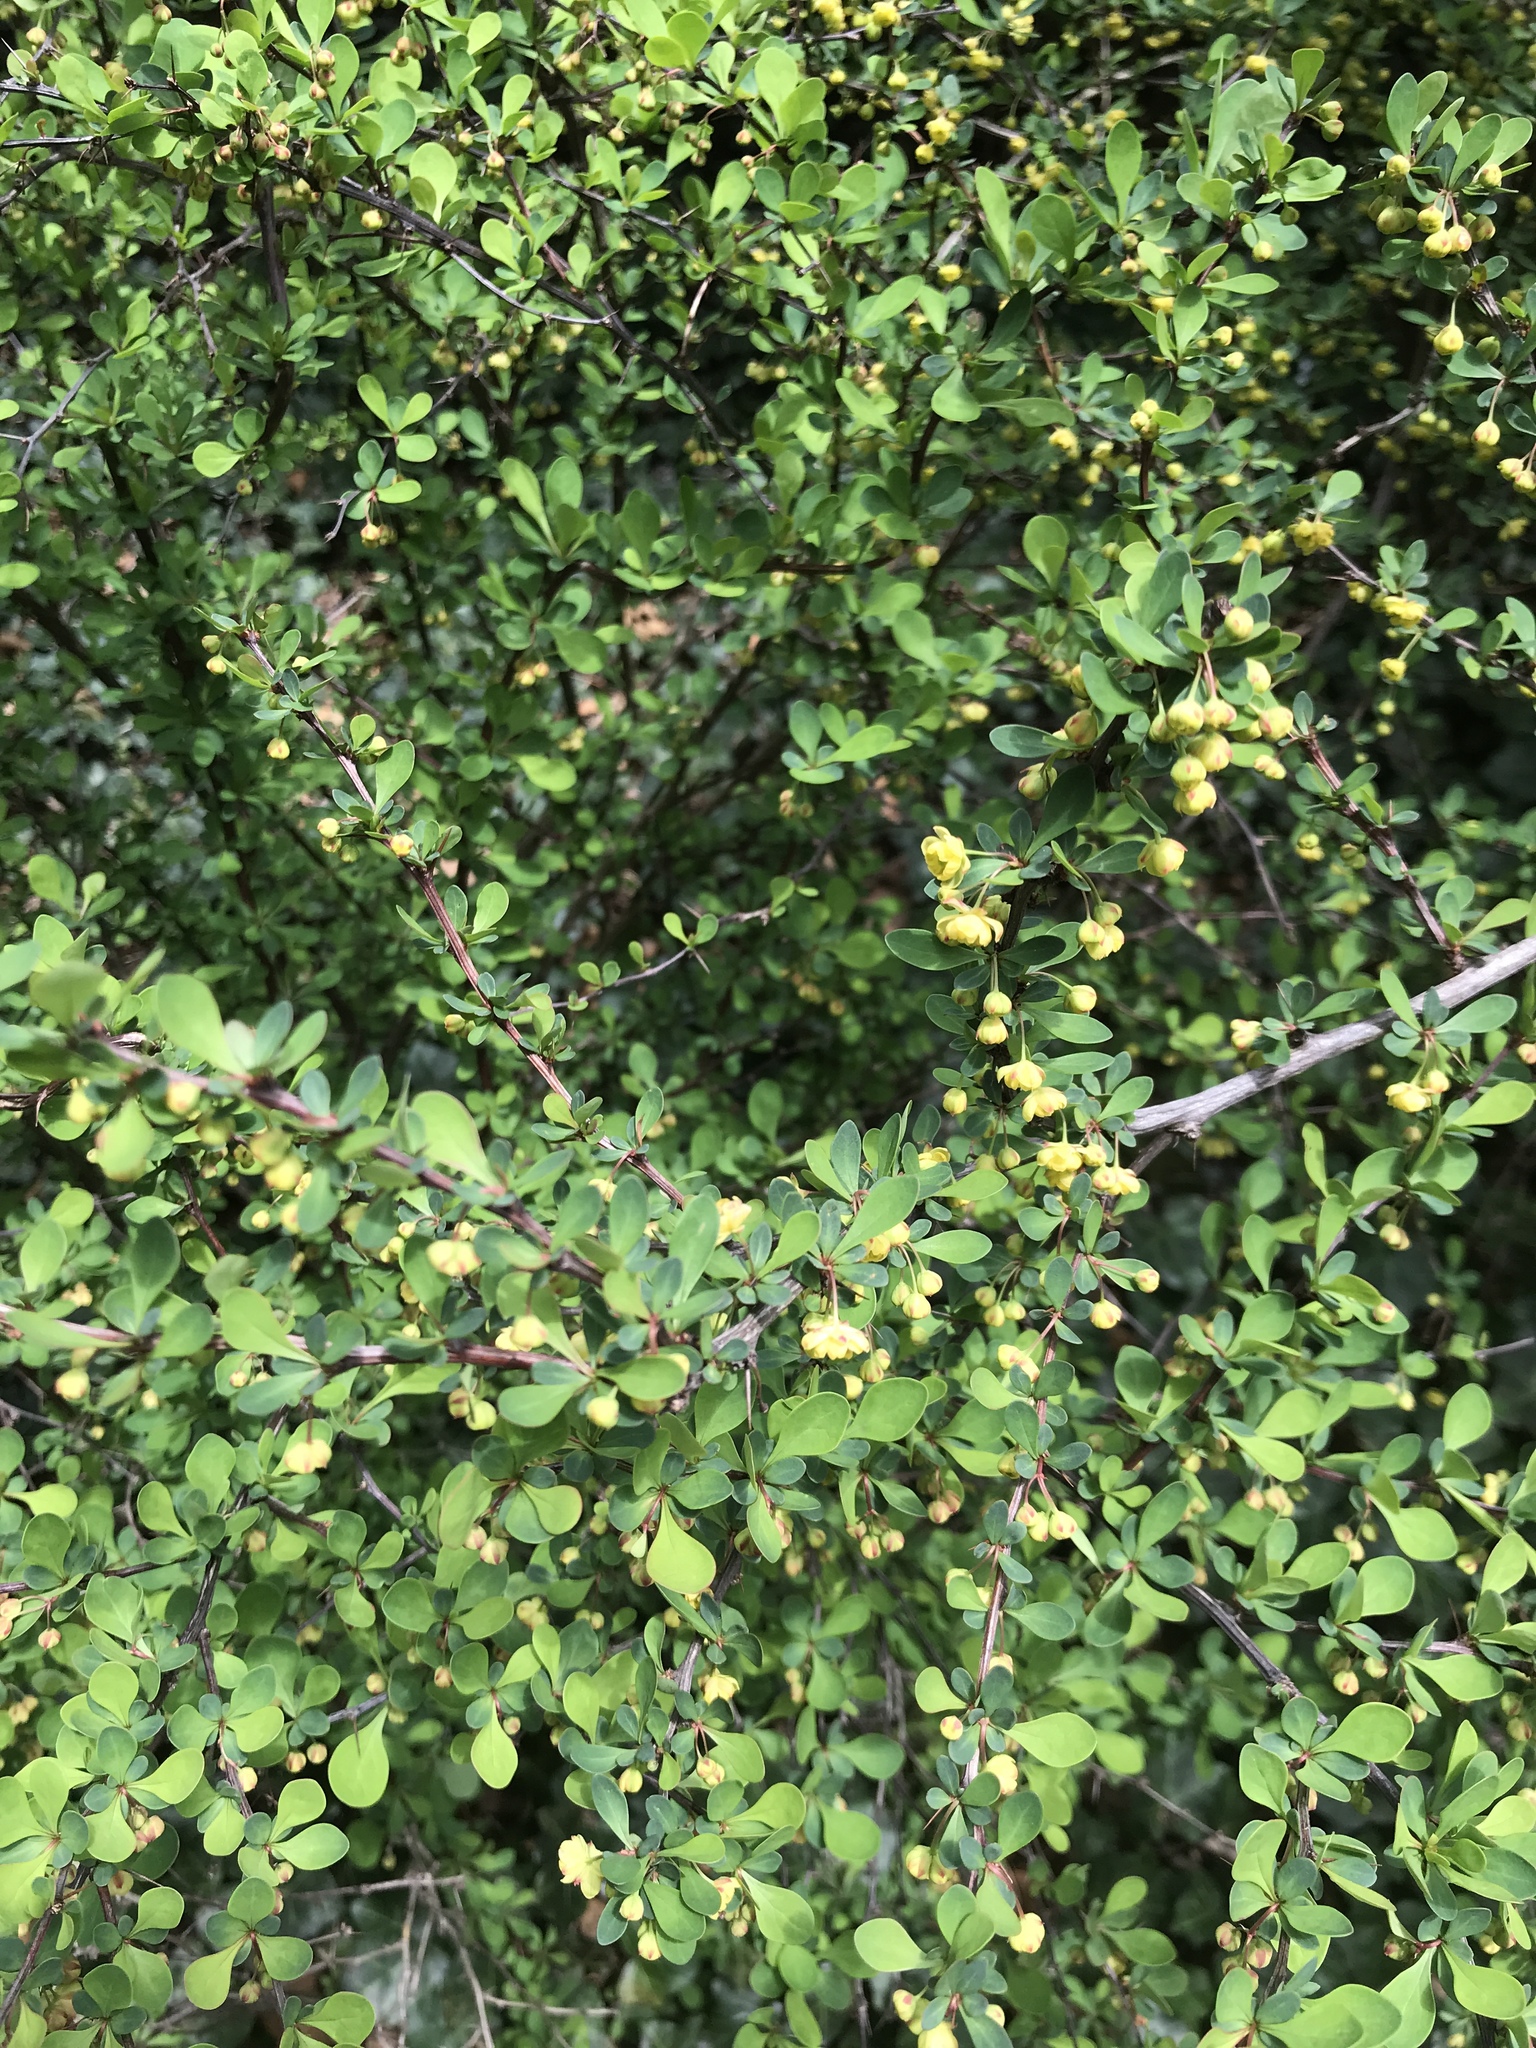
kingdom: Plantae
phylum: Tracheophyta
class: Magnoliopsida
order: Ranunculales
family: Berberidaceae
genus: Berberis
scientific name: Berberis thunbergii
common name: Japanese barberry
